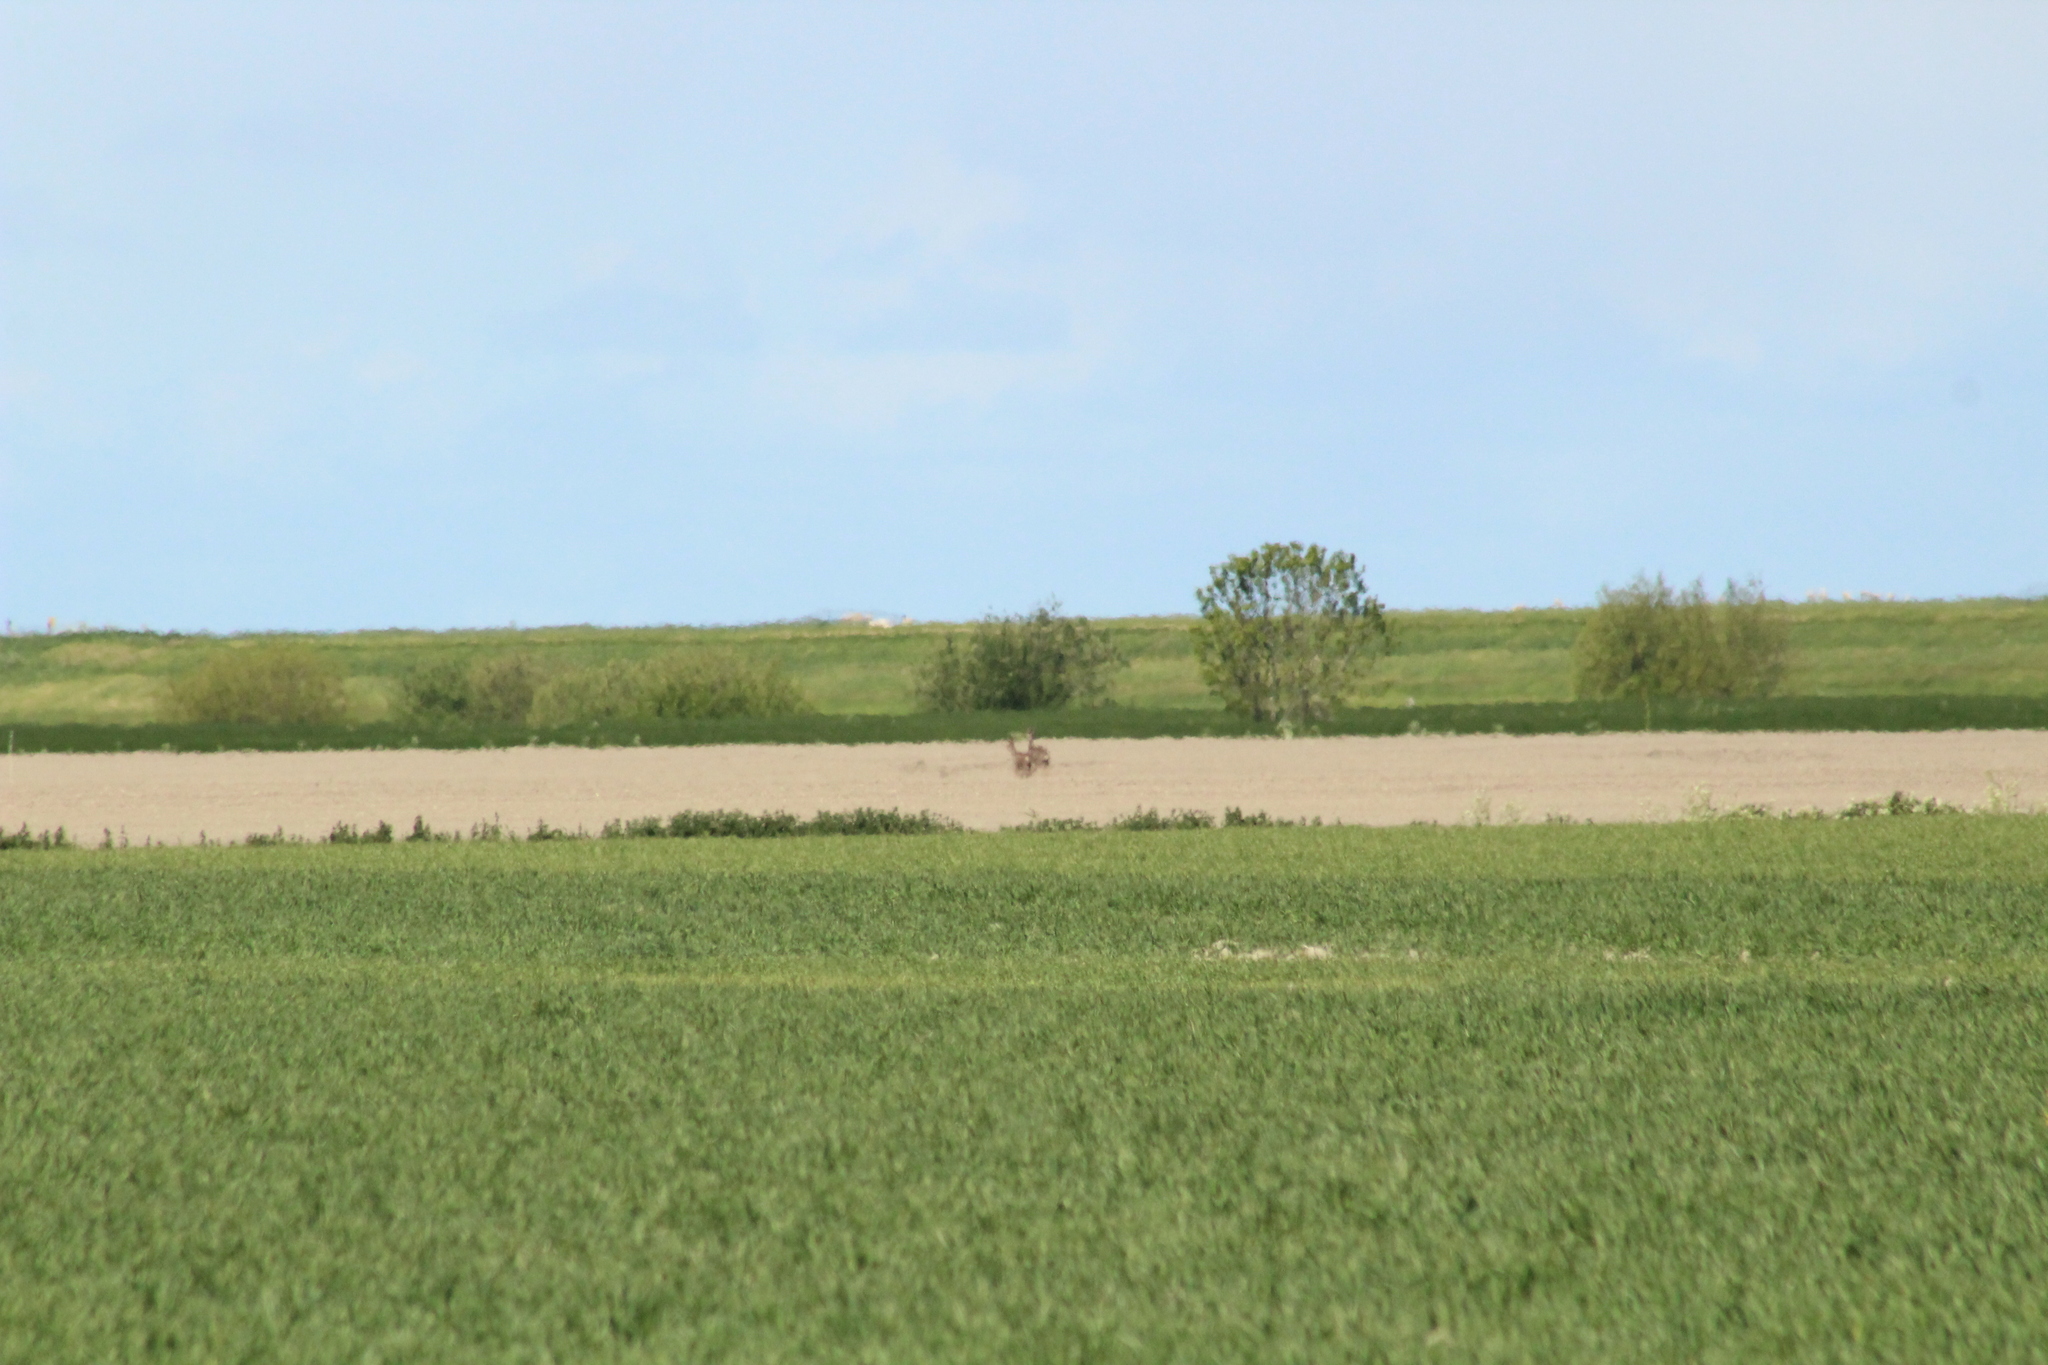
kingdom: Animalia
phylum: Chordata
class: Mammalia
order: Artiodactyla
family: Cervidae
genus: Capreolus
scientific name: Capreolus capreolus
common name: Western roe deer
